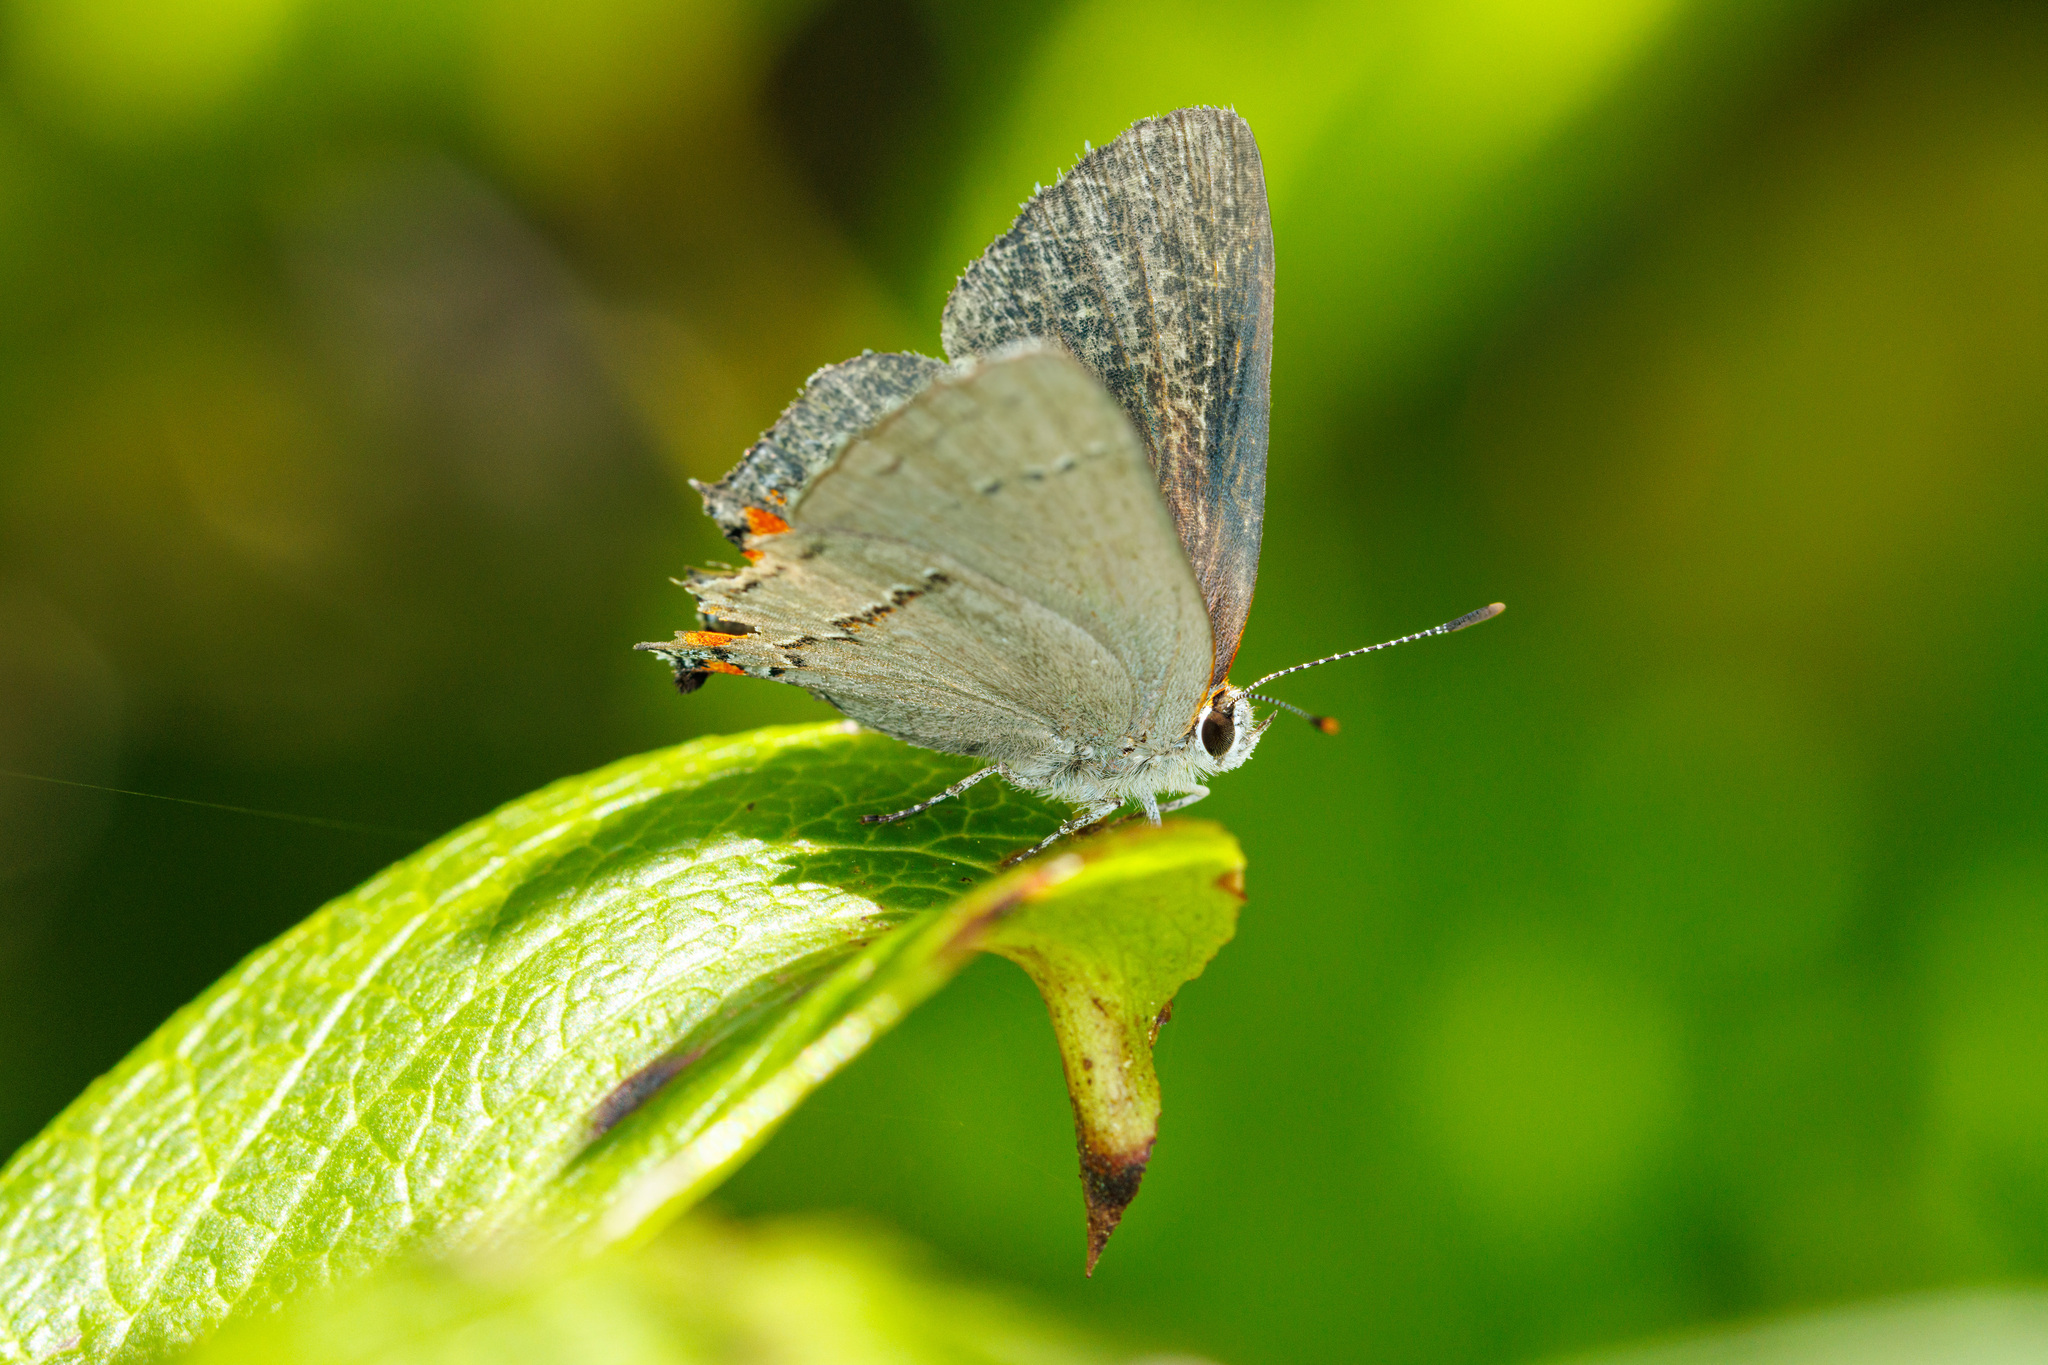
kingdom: Animalia
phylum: Arthropoda
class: Insecta
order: Lepidoptera
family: Lycaenidae
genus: Strymon
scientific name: Strymon melinus
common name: Gray hairstreak
